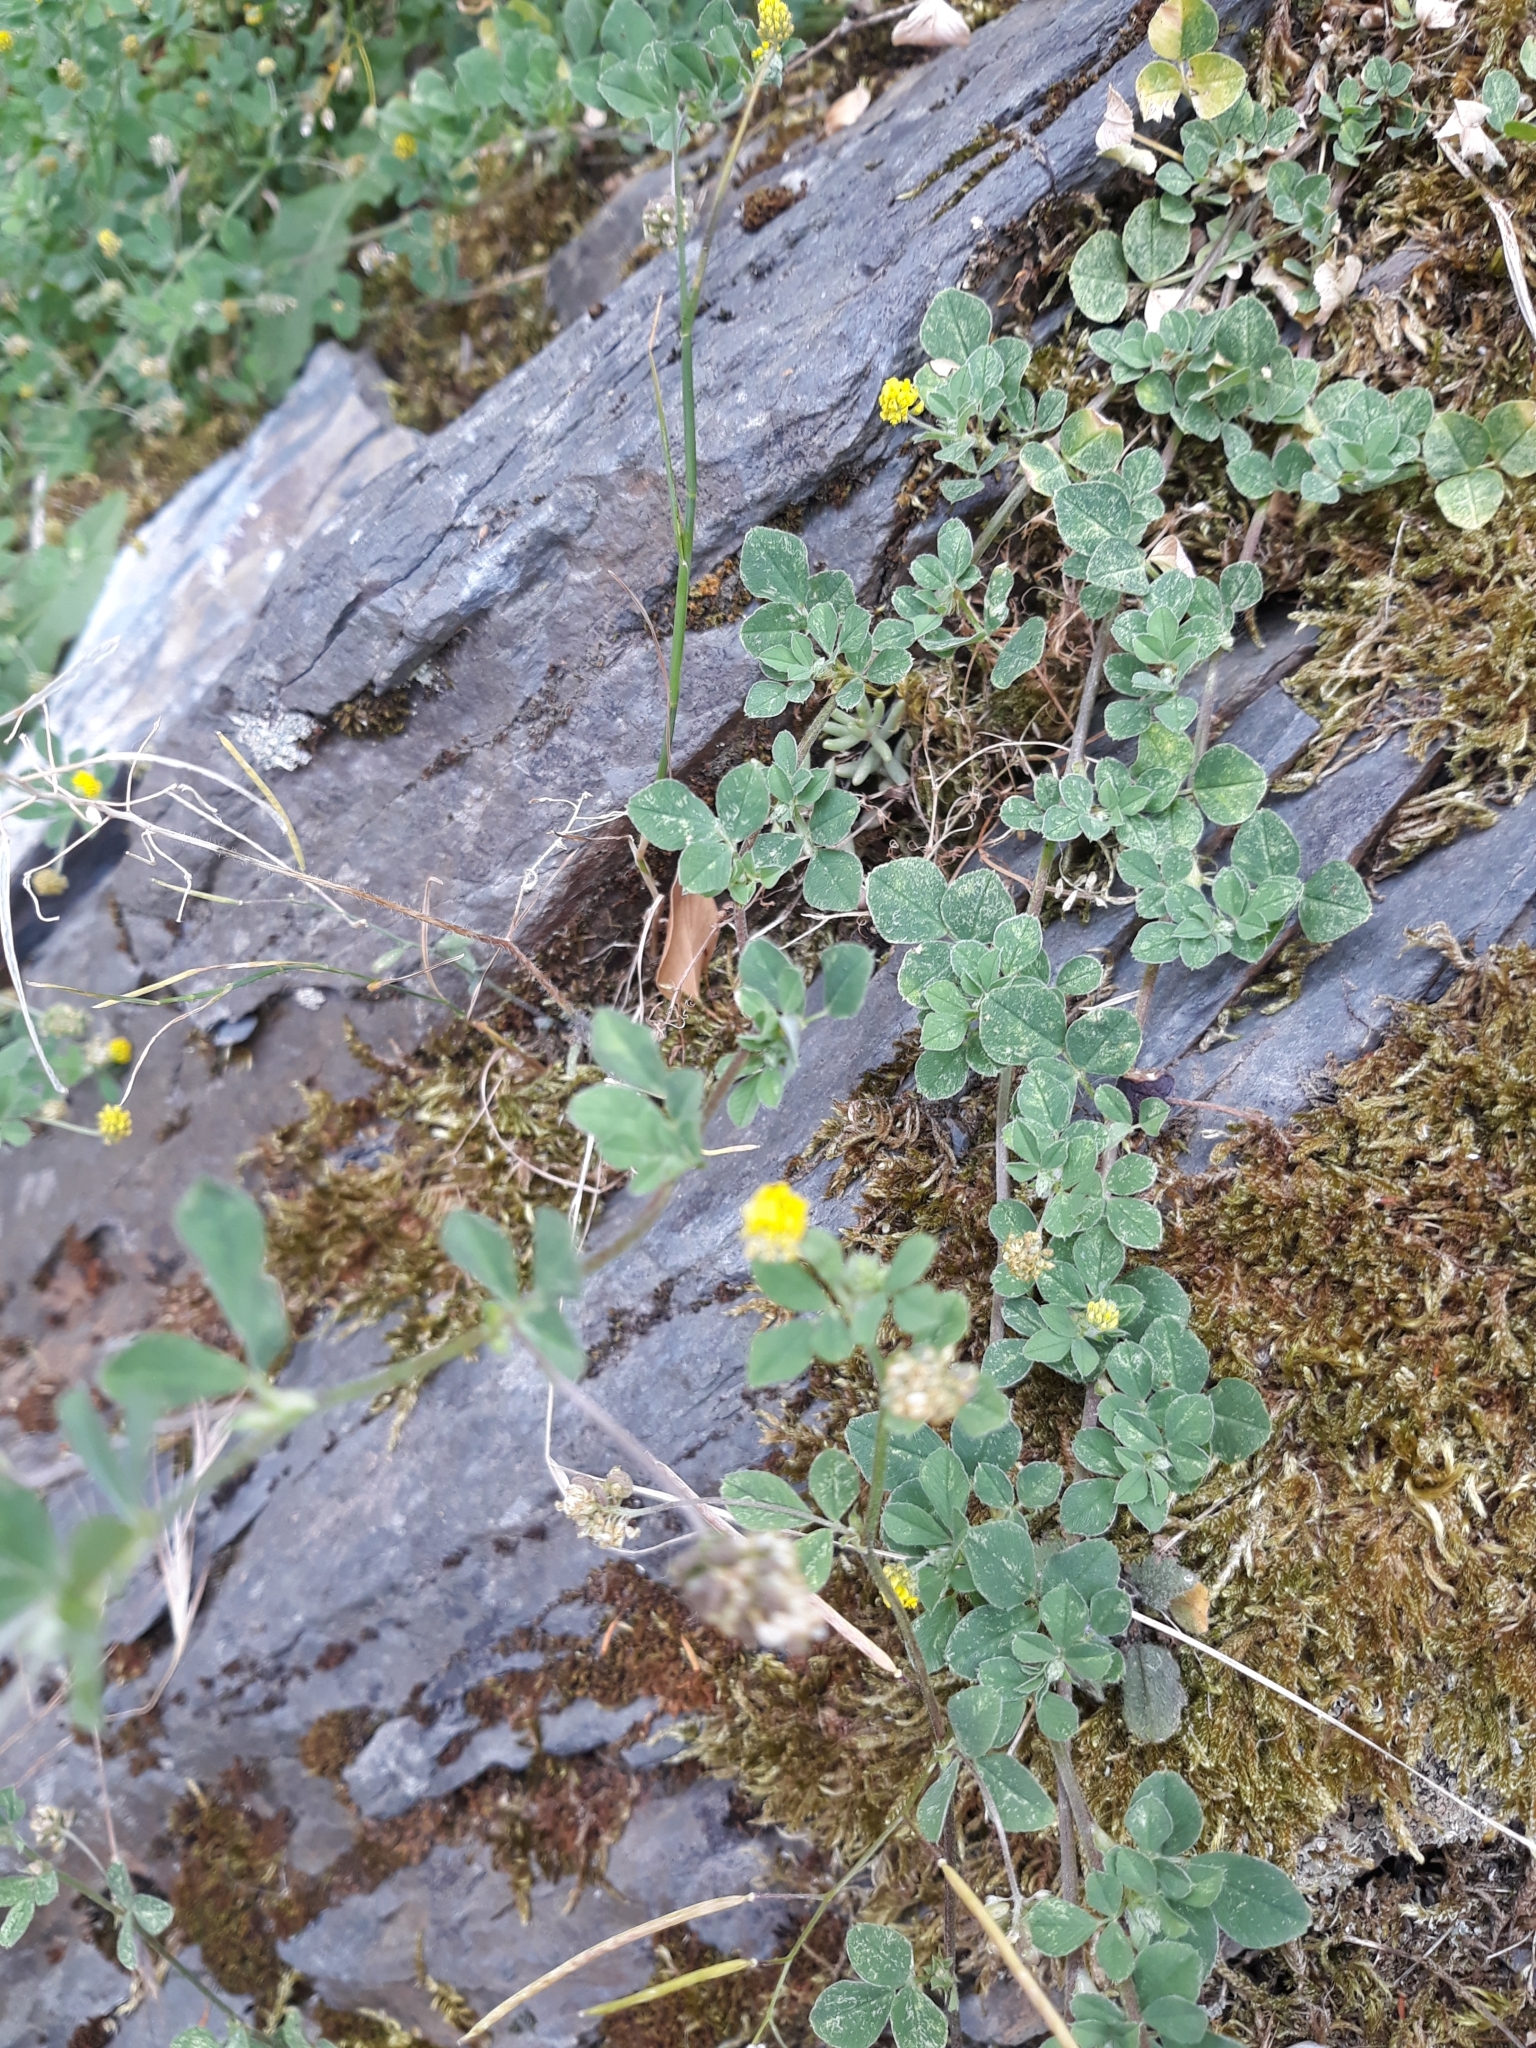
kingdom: Plantae
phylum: Tracheophyta
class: Magnoliopsida
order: Fabales
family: Fabaceae
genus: Medicago
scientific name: Medicago lupulina
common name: Black medick
